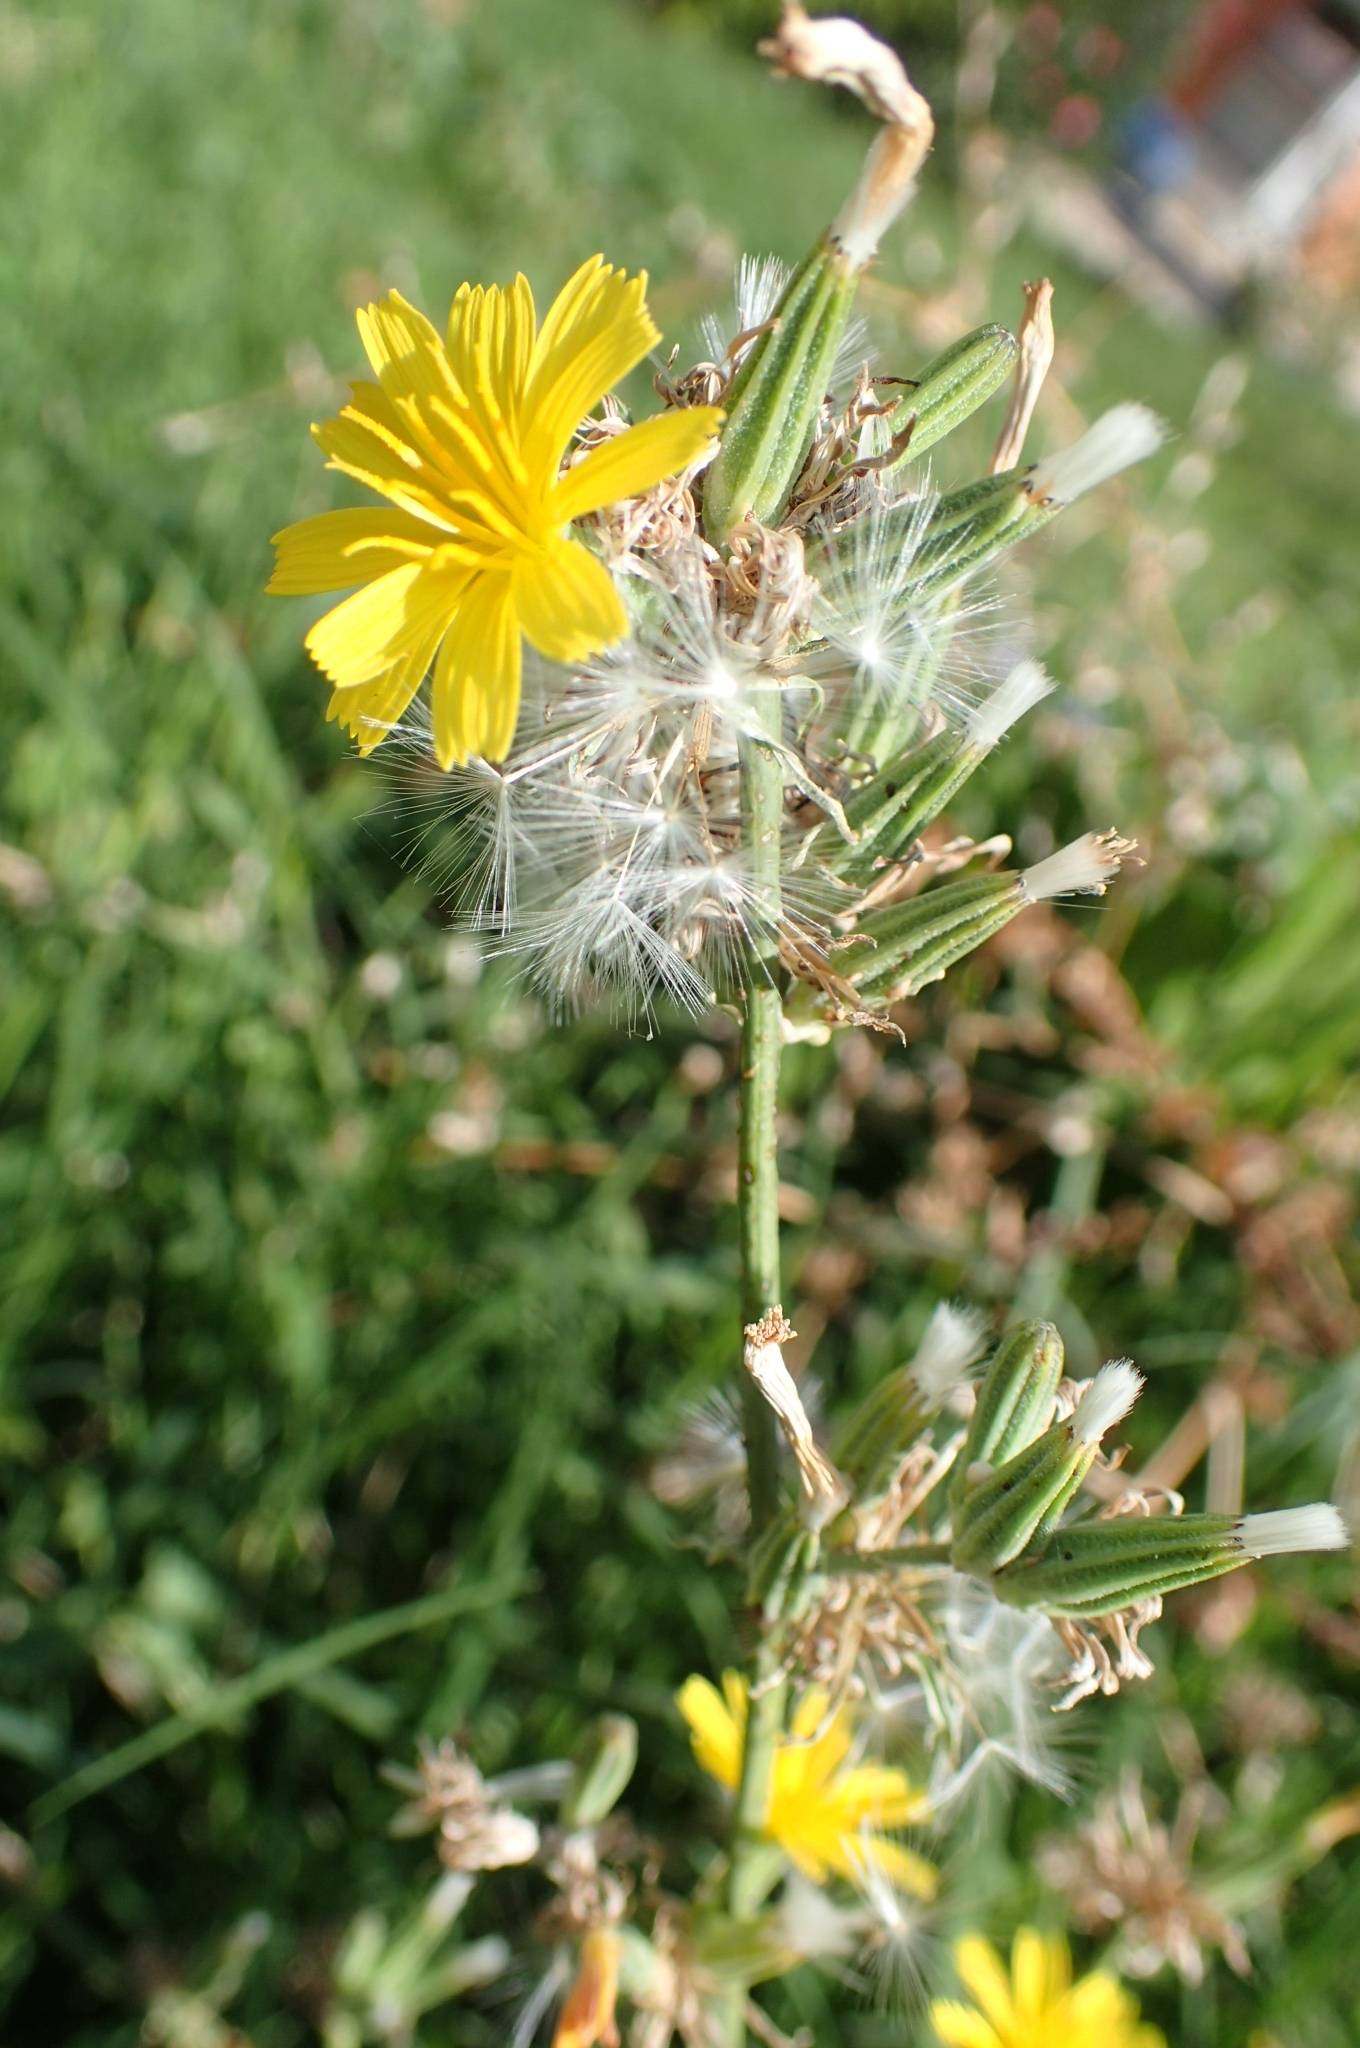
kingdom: Plantae
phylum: Tracheophyta
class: Magnoliopsida
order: Asterales
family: Asteraceae
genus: Chondrilla
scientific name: Chondrilla juncea
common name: Skeleton weed
